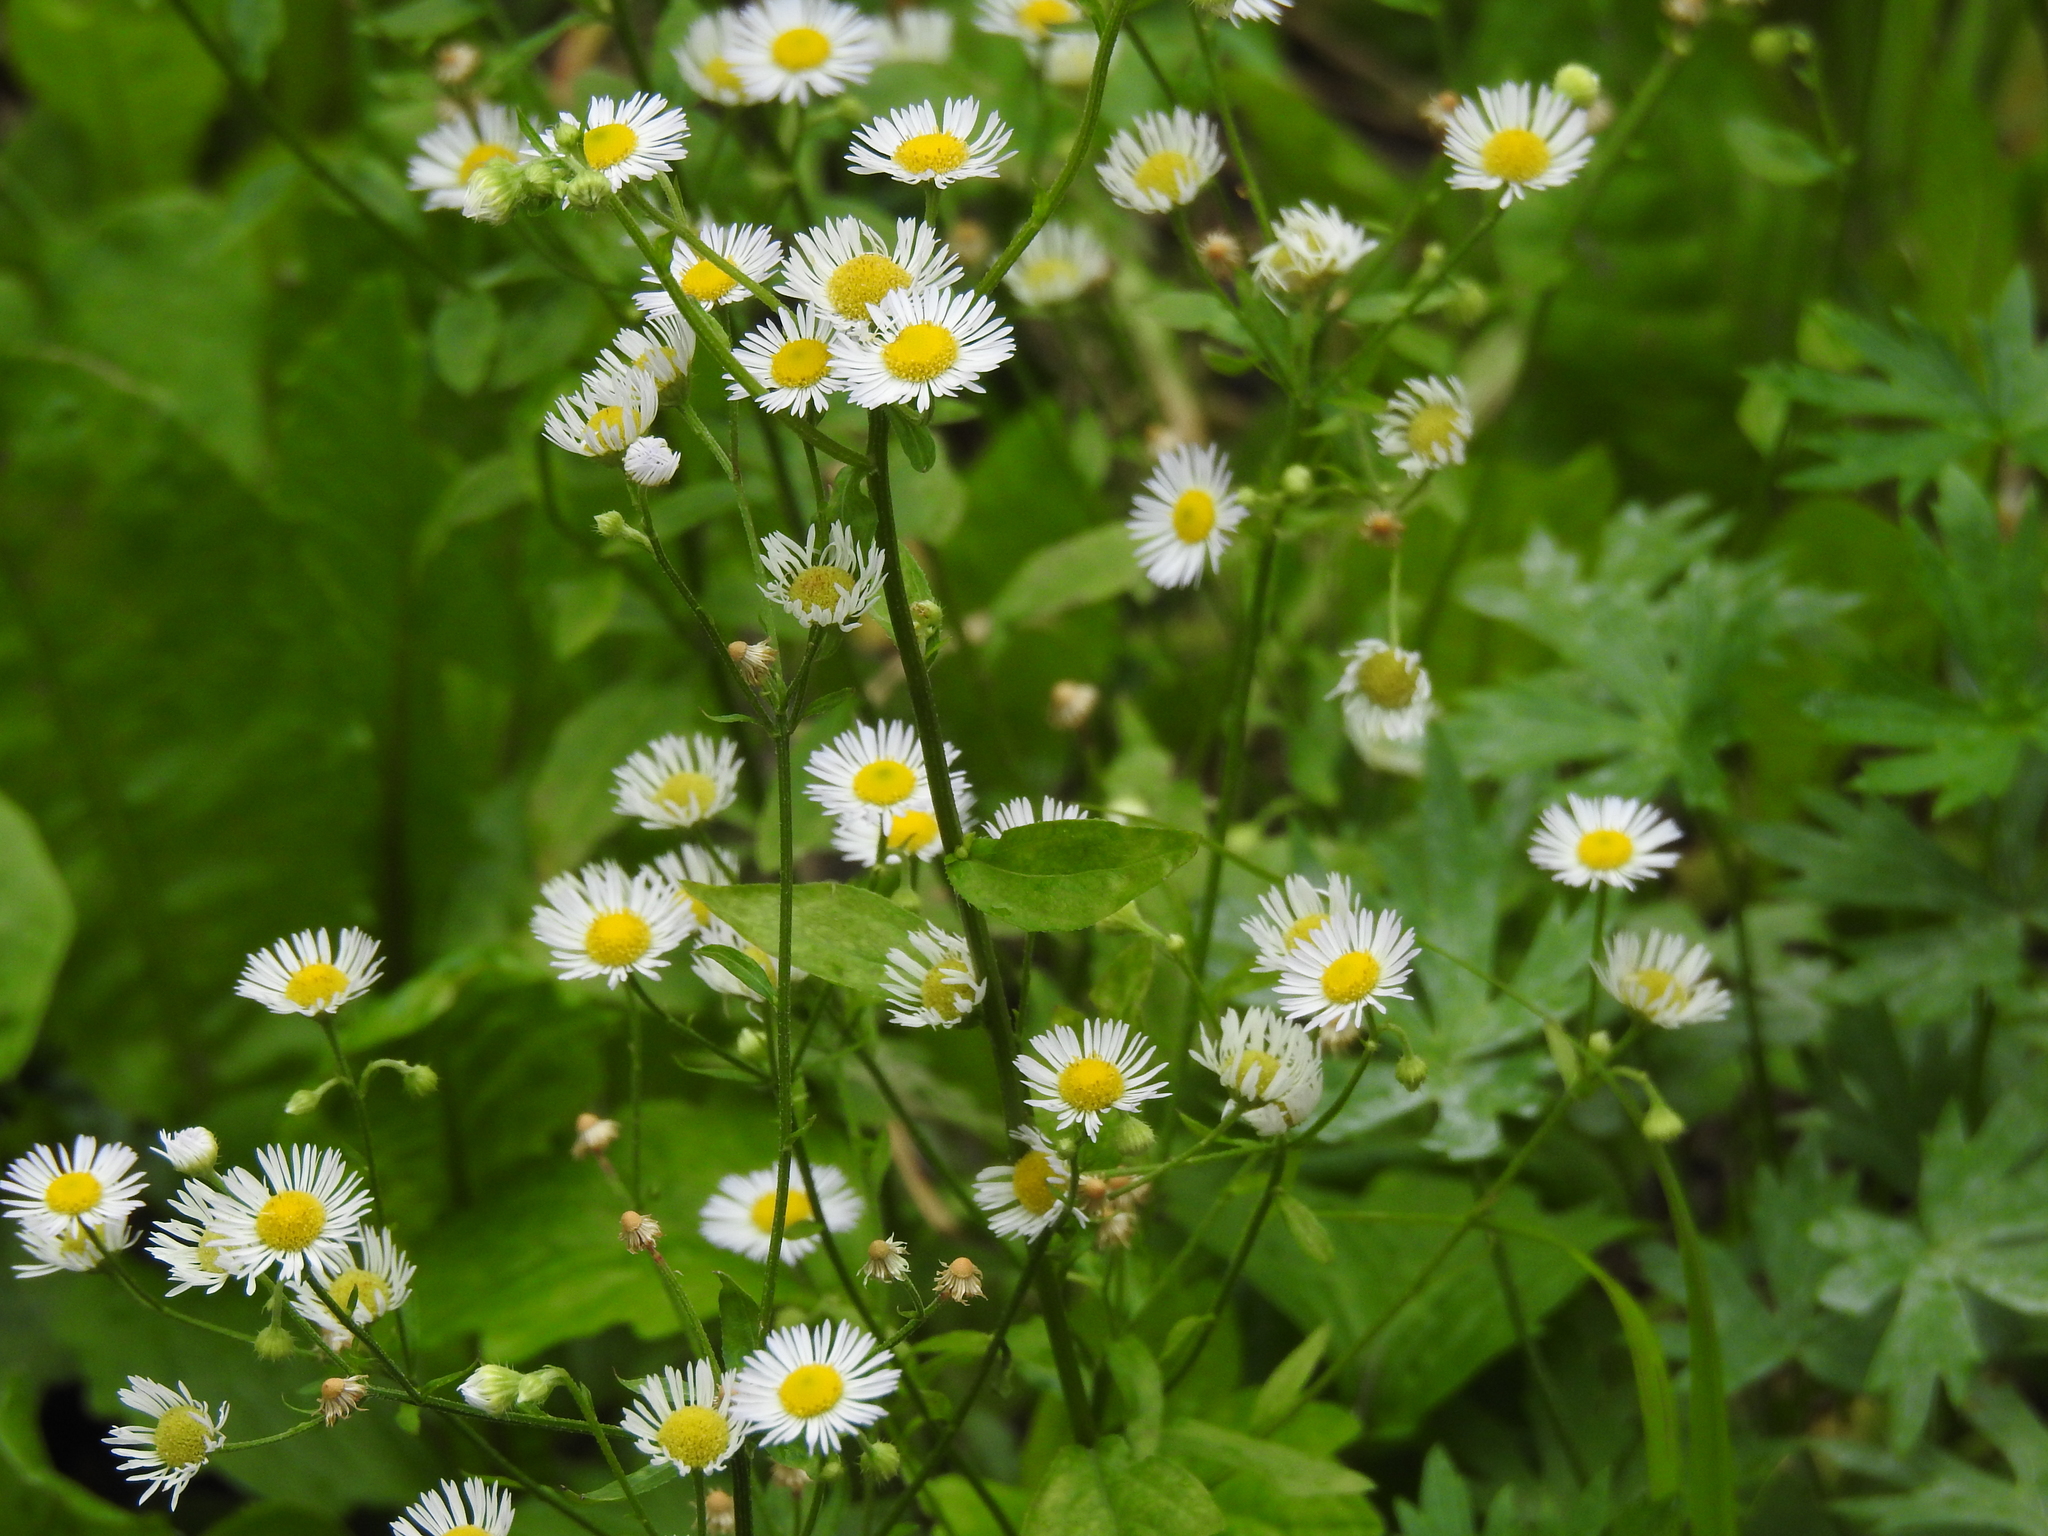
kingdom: Plantae
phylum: Tracheophyta
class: Magnoliopsida
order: Asterales
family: Asteraceae
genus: Erigeron
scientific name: Erigeron annuus
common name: Tall fleabane
